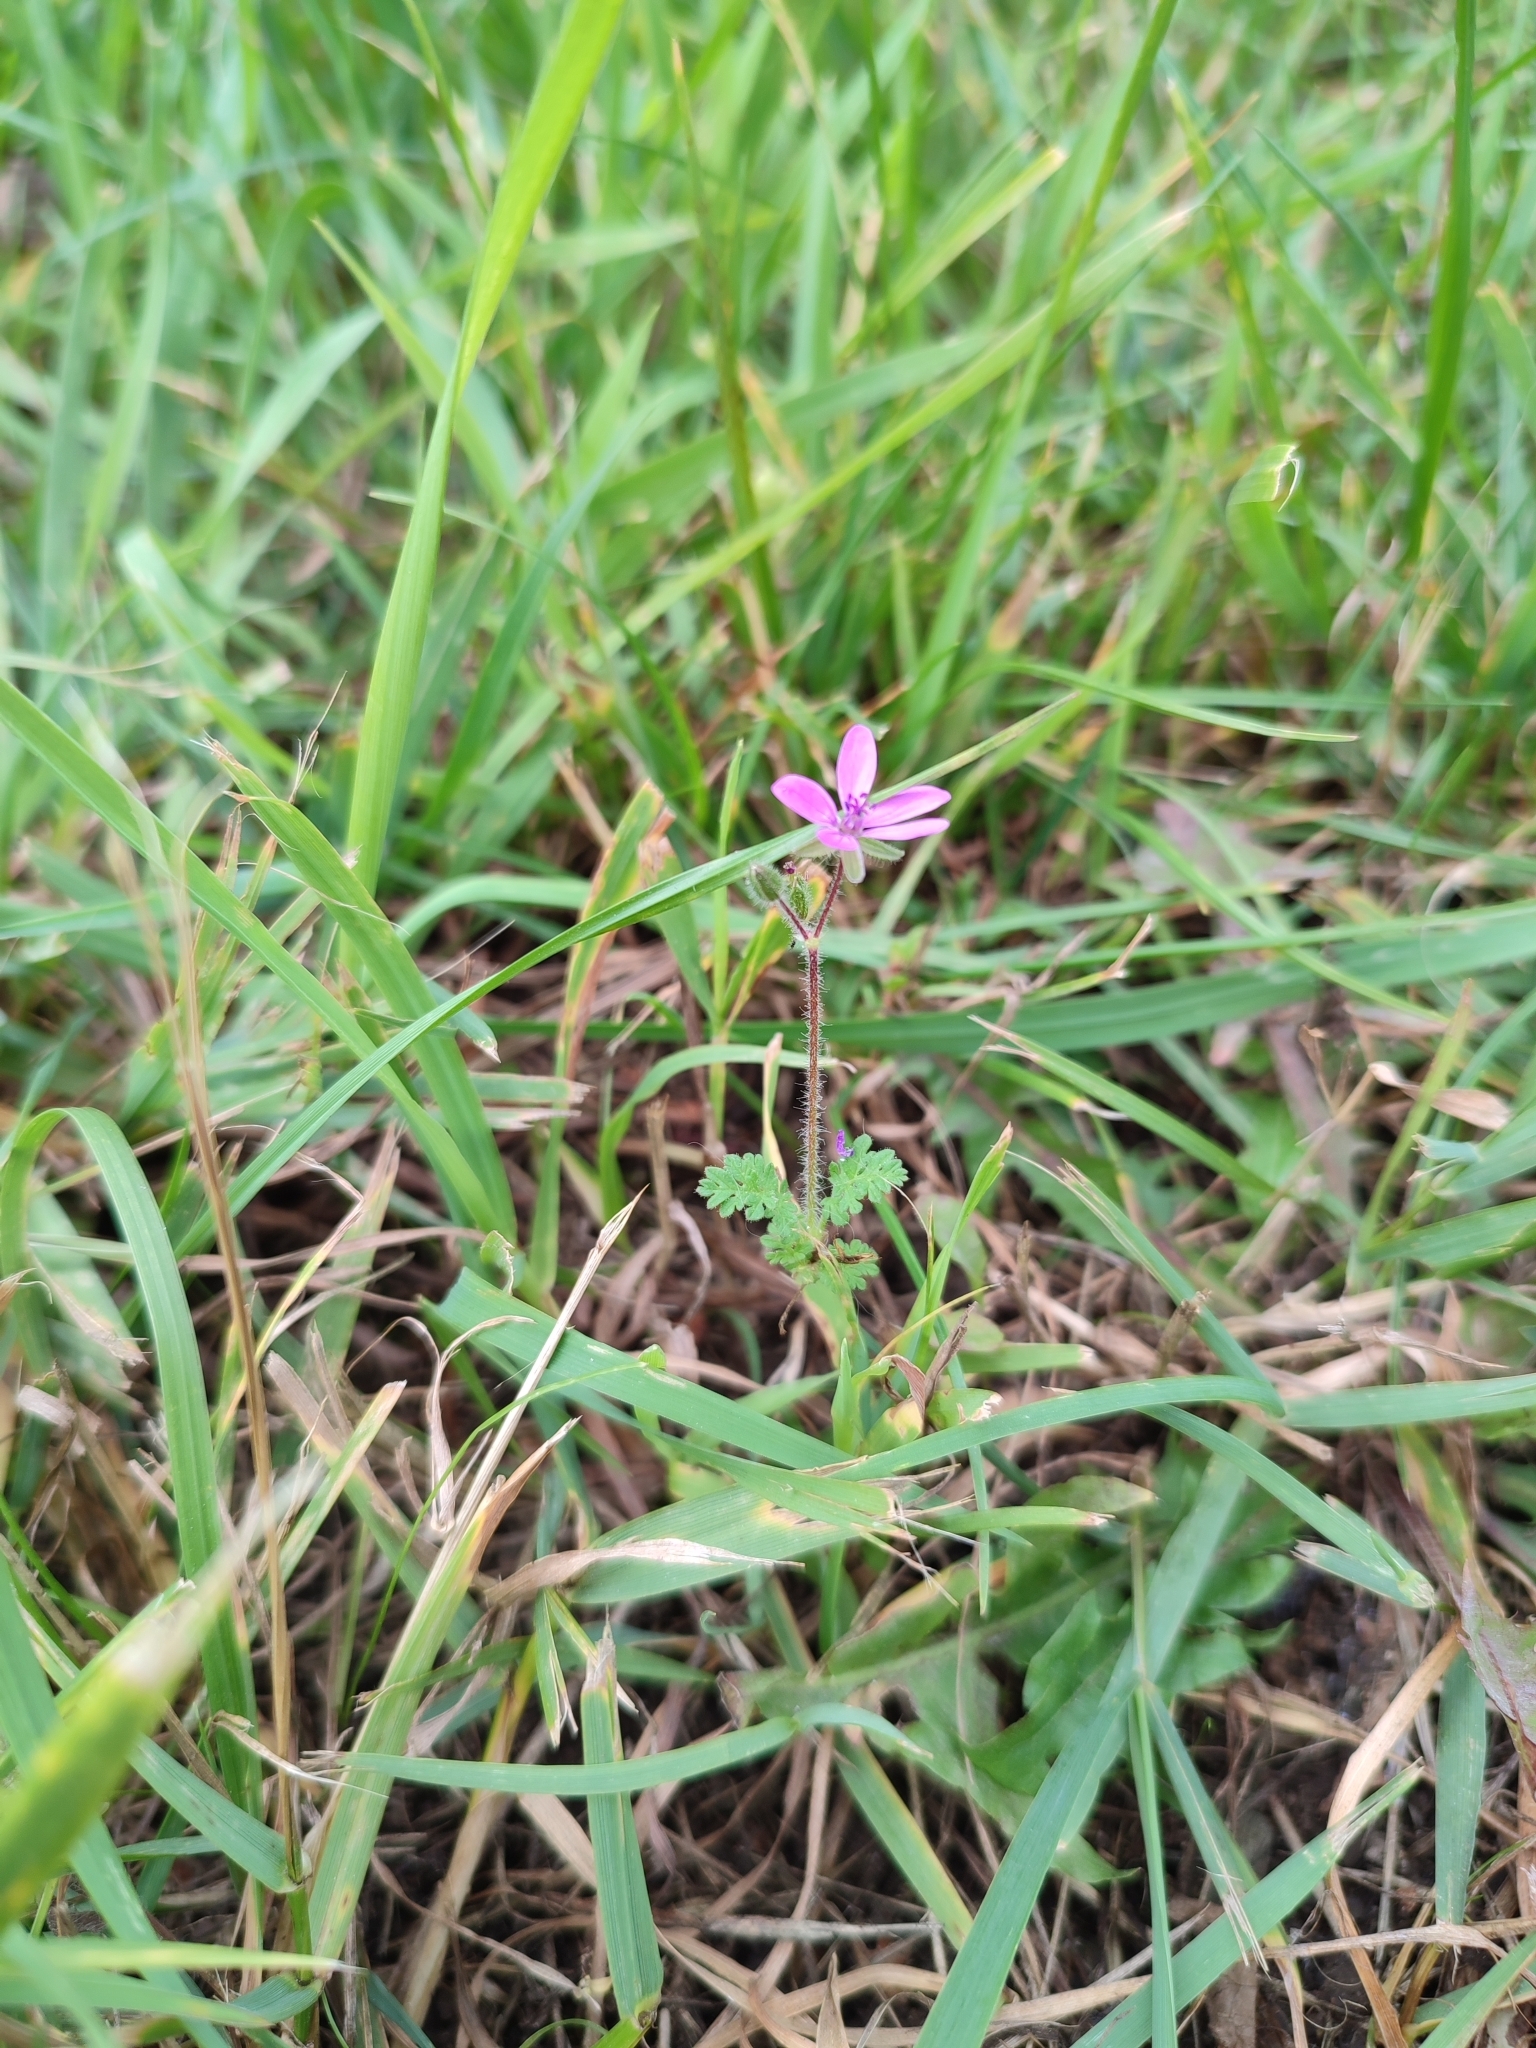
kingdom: Plantae
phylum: Tracheophyta
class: Magnoliopsida
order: Geraniales
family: Geraniaceae
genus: Erodium
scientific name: Erodium cicutarium
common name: Common stork's-bill
